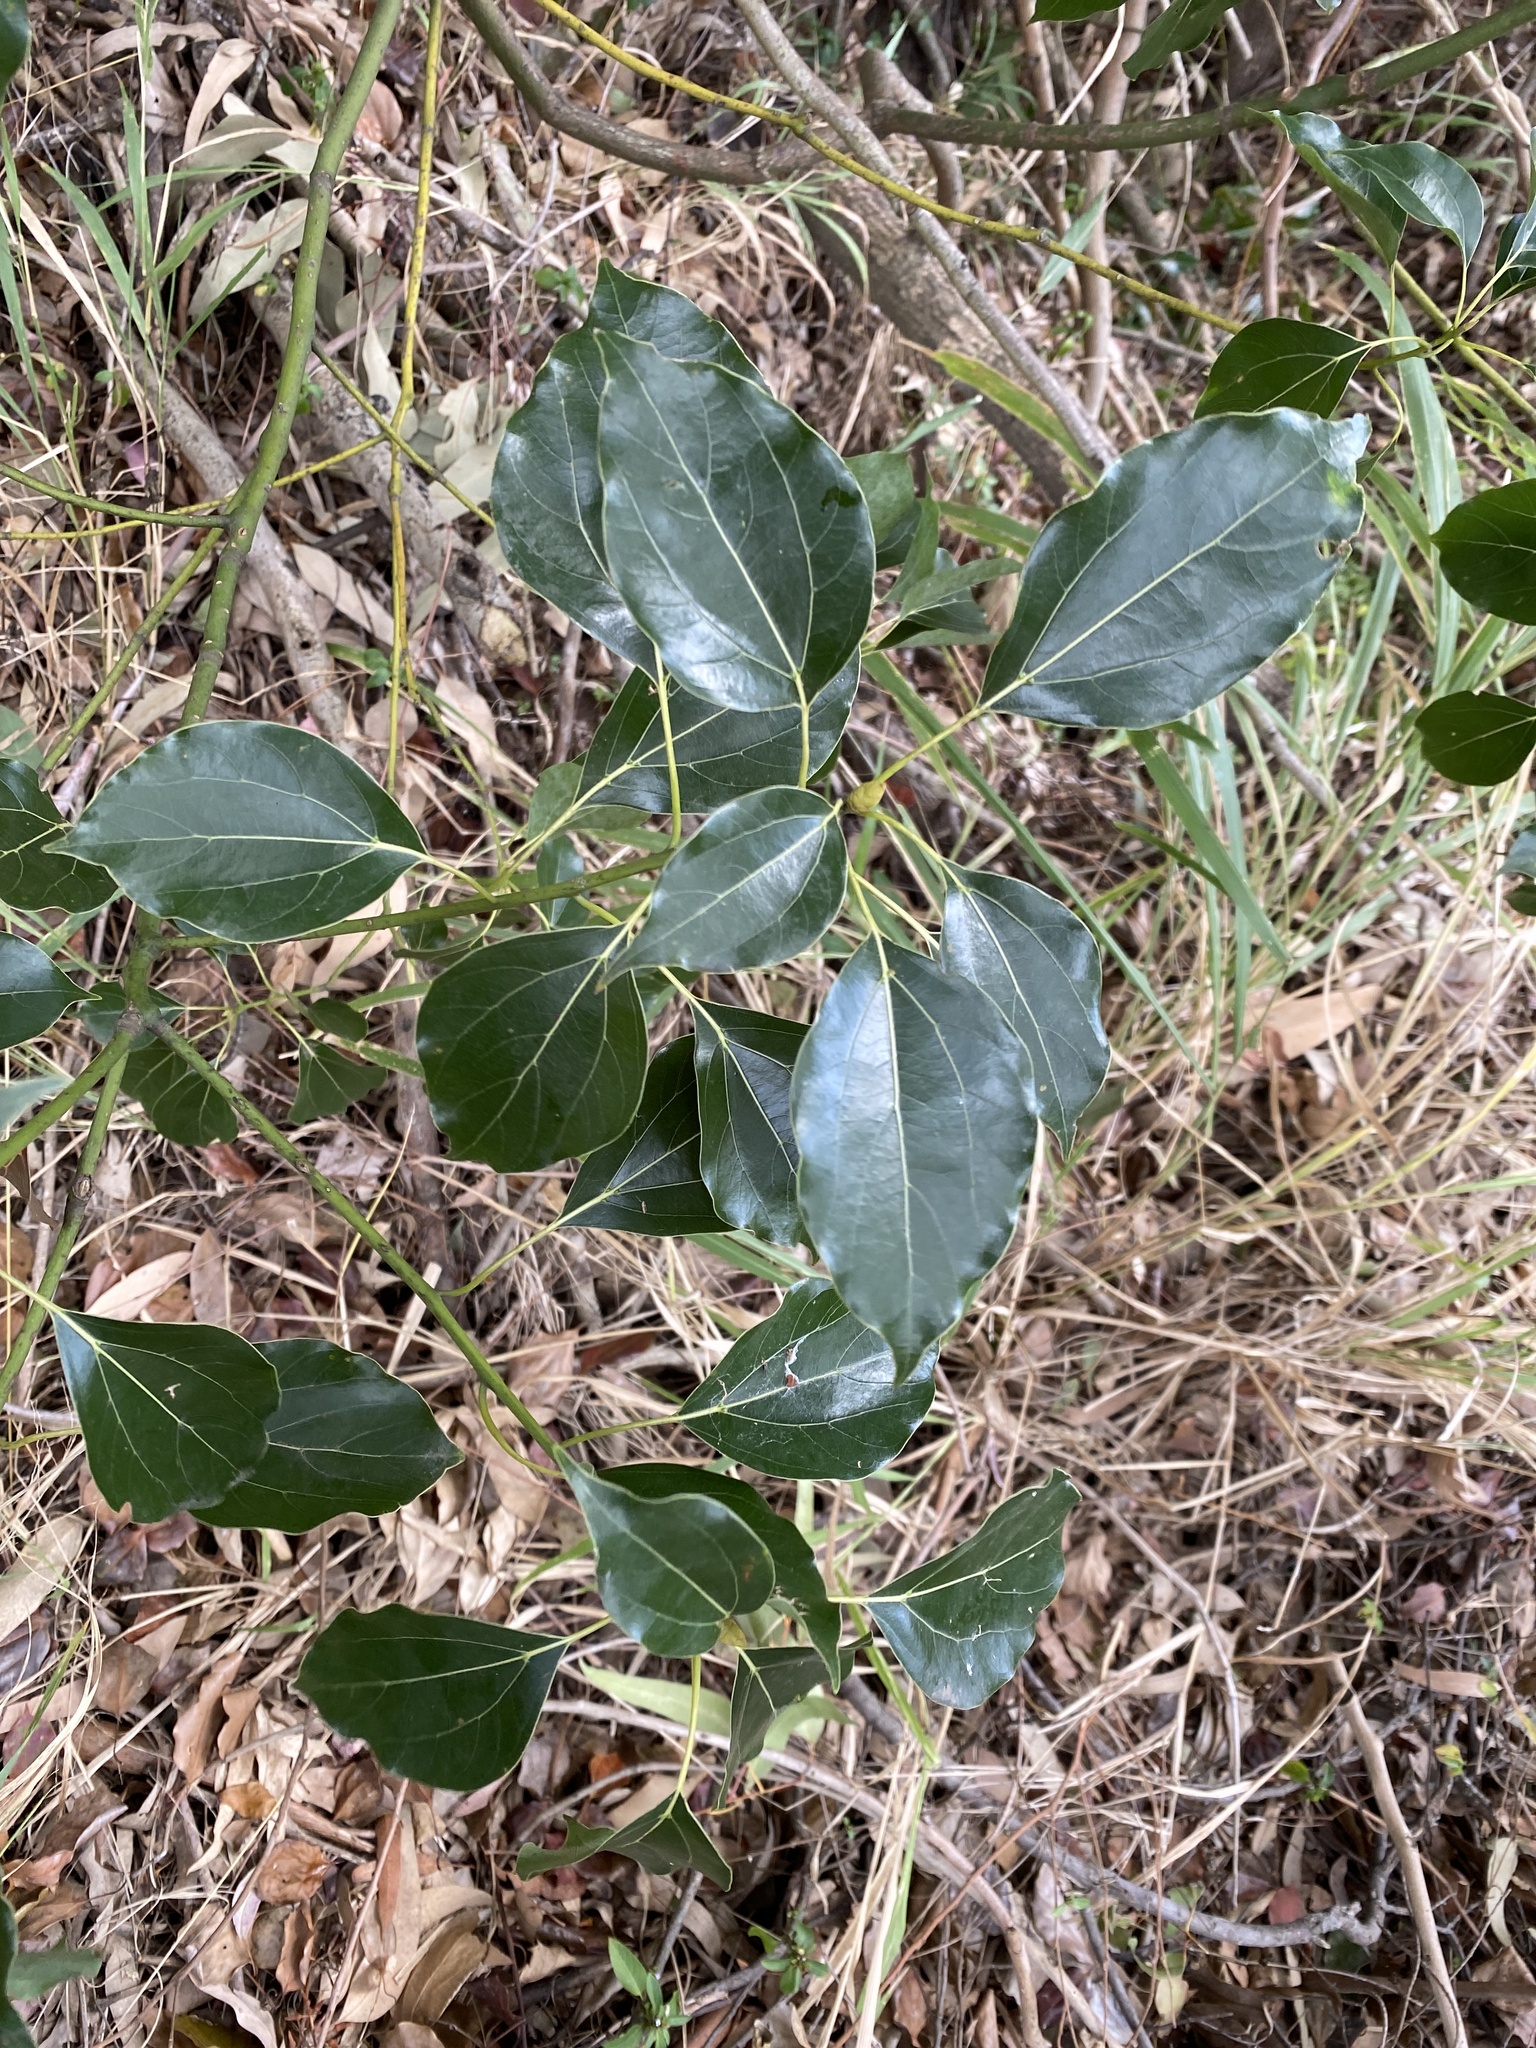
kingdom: Plantae
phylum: Tracheophyta
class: Magnoliopsida
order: Laurales
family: Lauraceae
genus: Cinnamomum
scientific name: Cinnamomum camphora
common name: Camphortree
